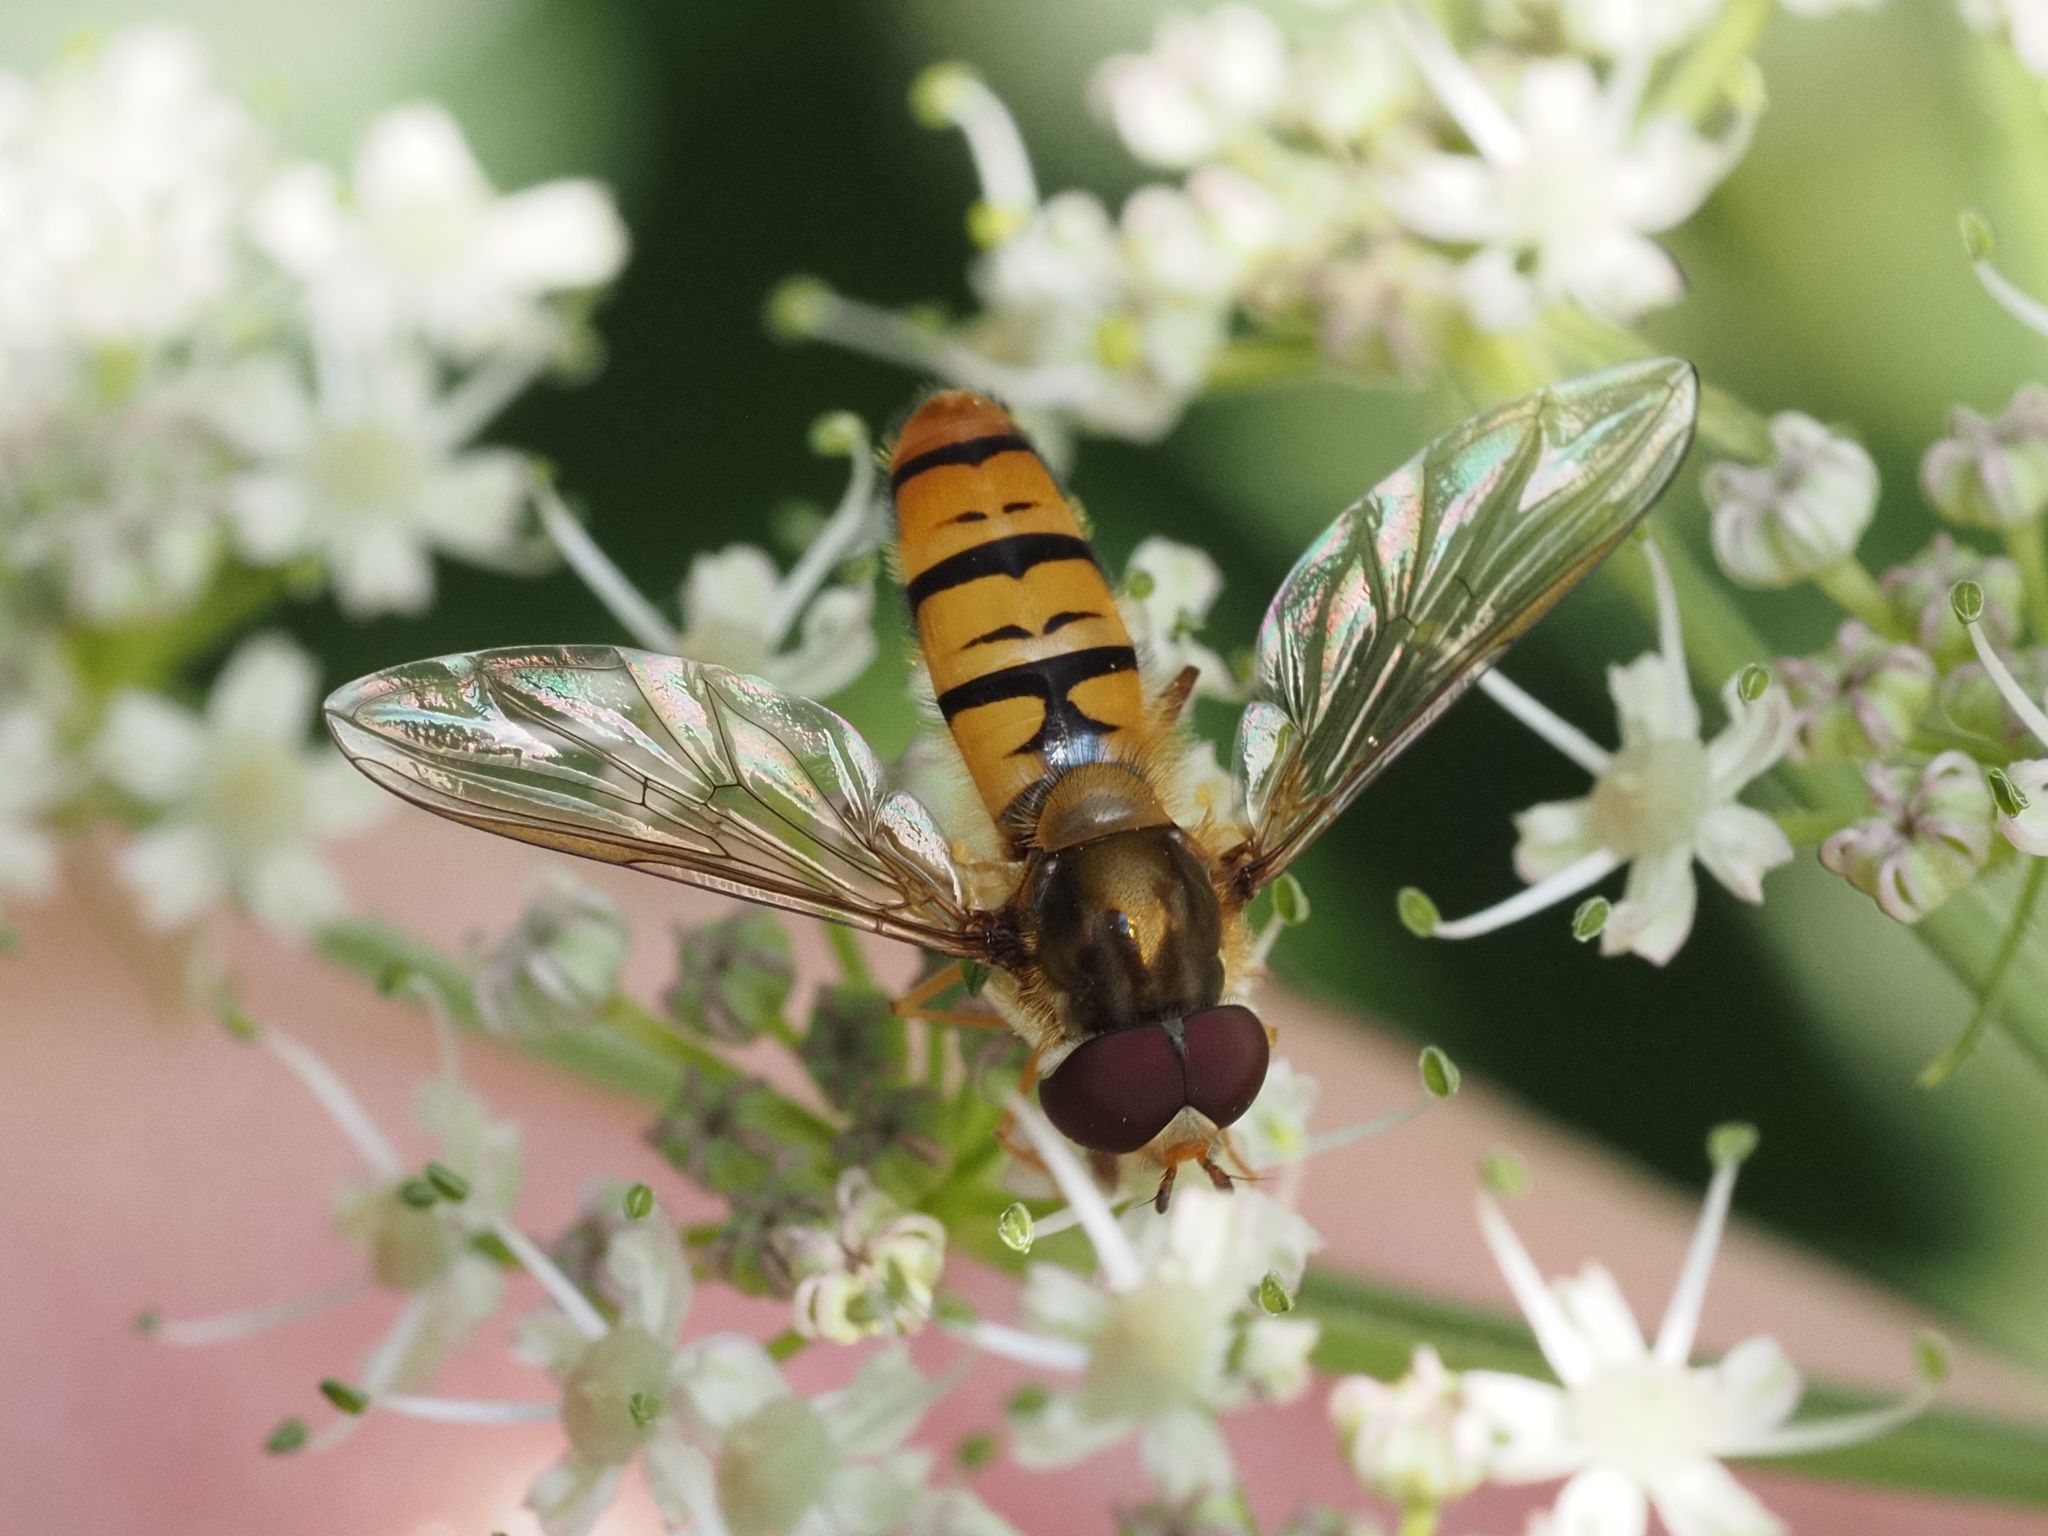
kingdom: Animalia
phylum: Arthropoda
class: Insecta
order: Diptera
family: Syrphidae
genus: Episyrphus
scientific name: Episyrphus balteatus
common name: Marmalade hoverfly
